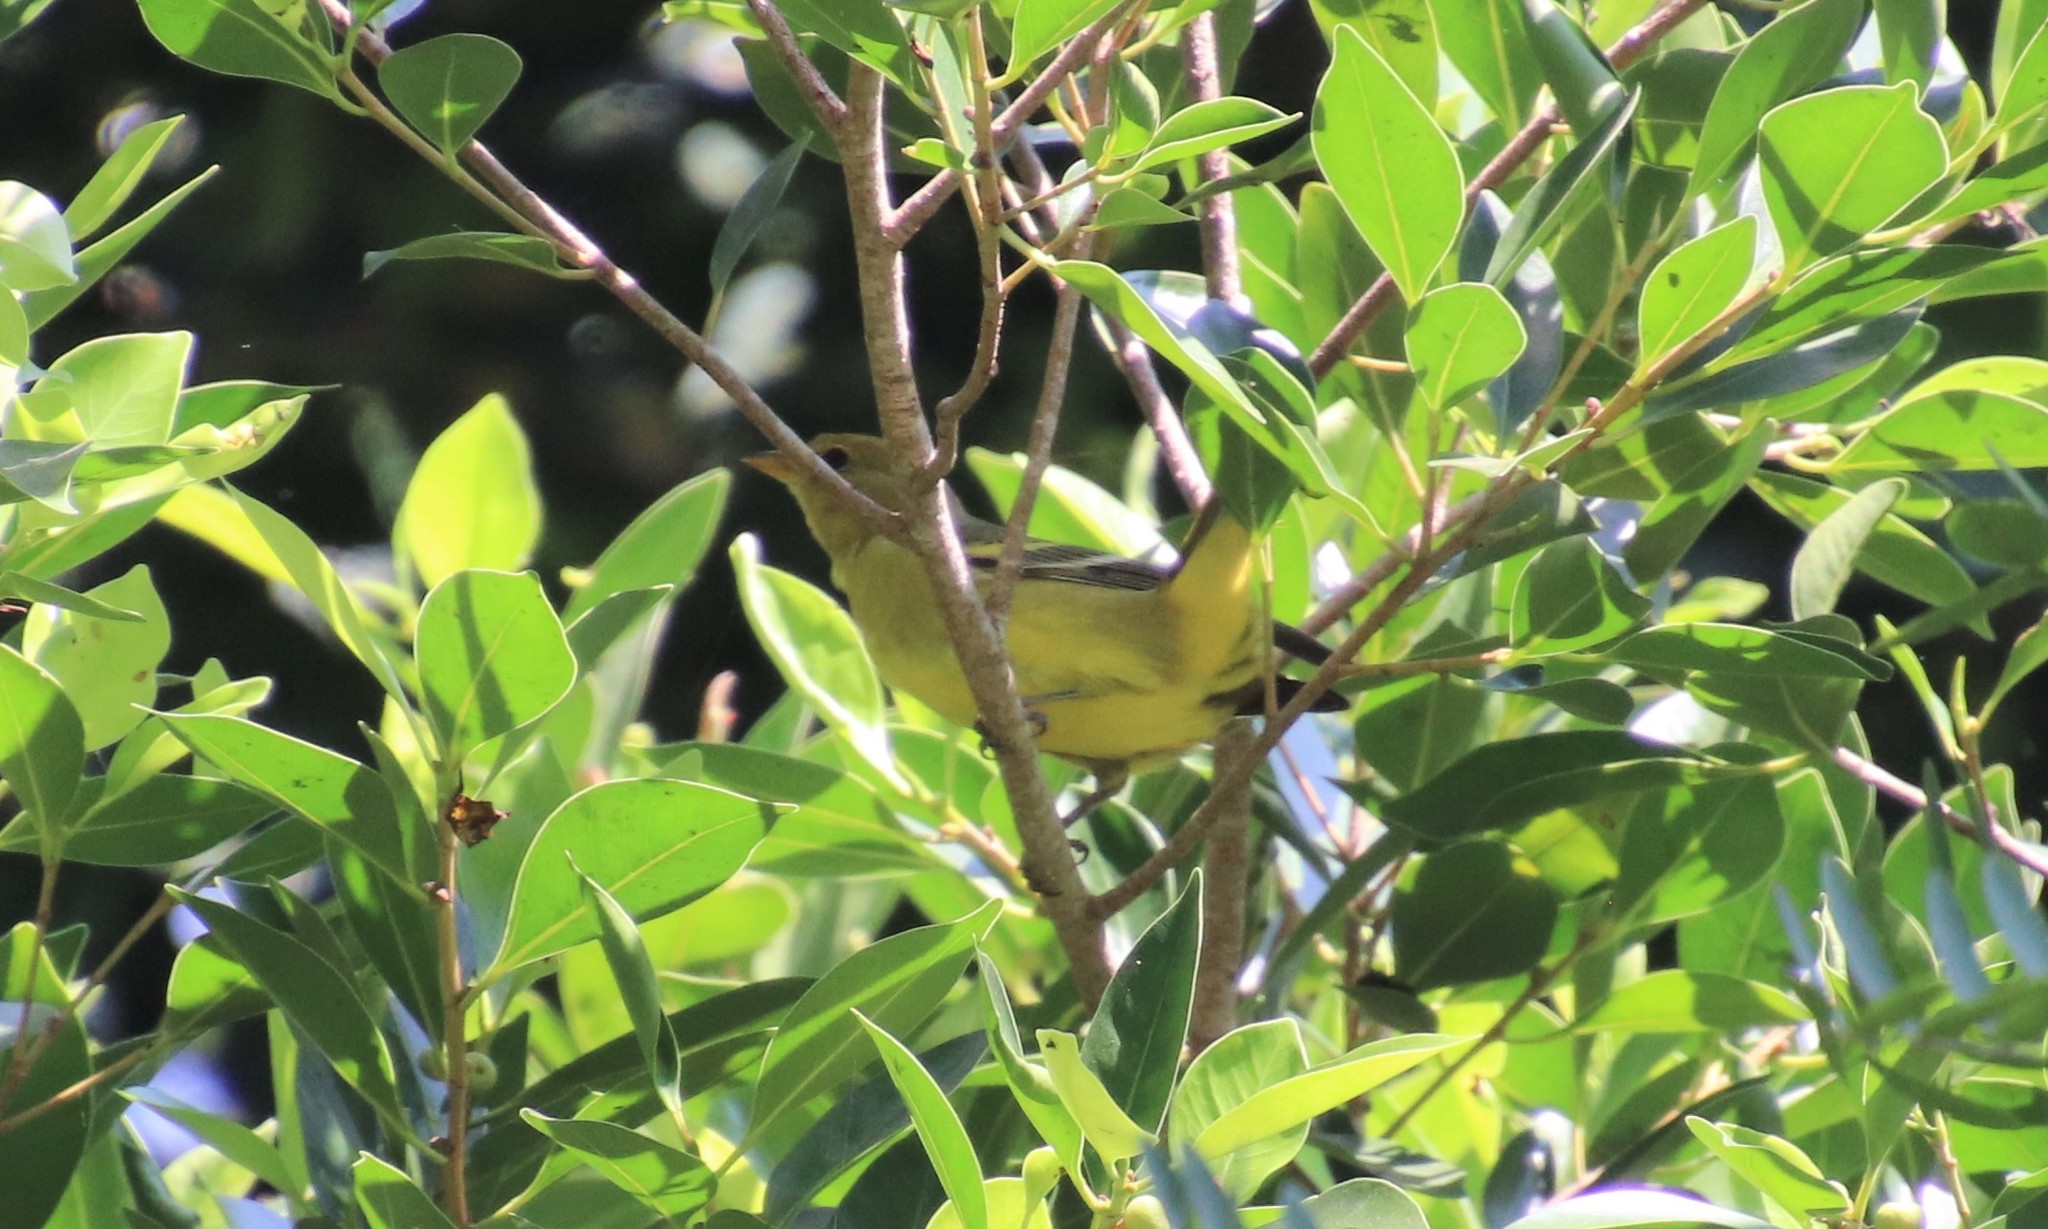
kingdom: Animalia
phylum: Chordata
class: Aves
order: Passeriformes
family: Cardinalidae
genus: Piranga
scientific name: Piranga ludoviciana
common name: Western tanager
